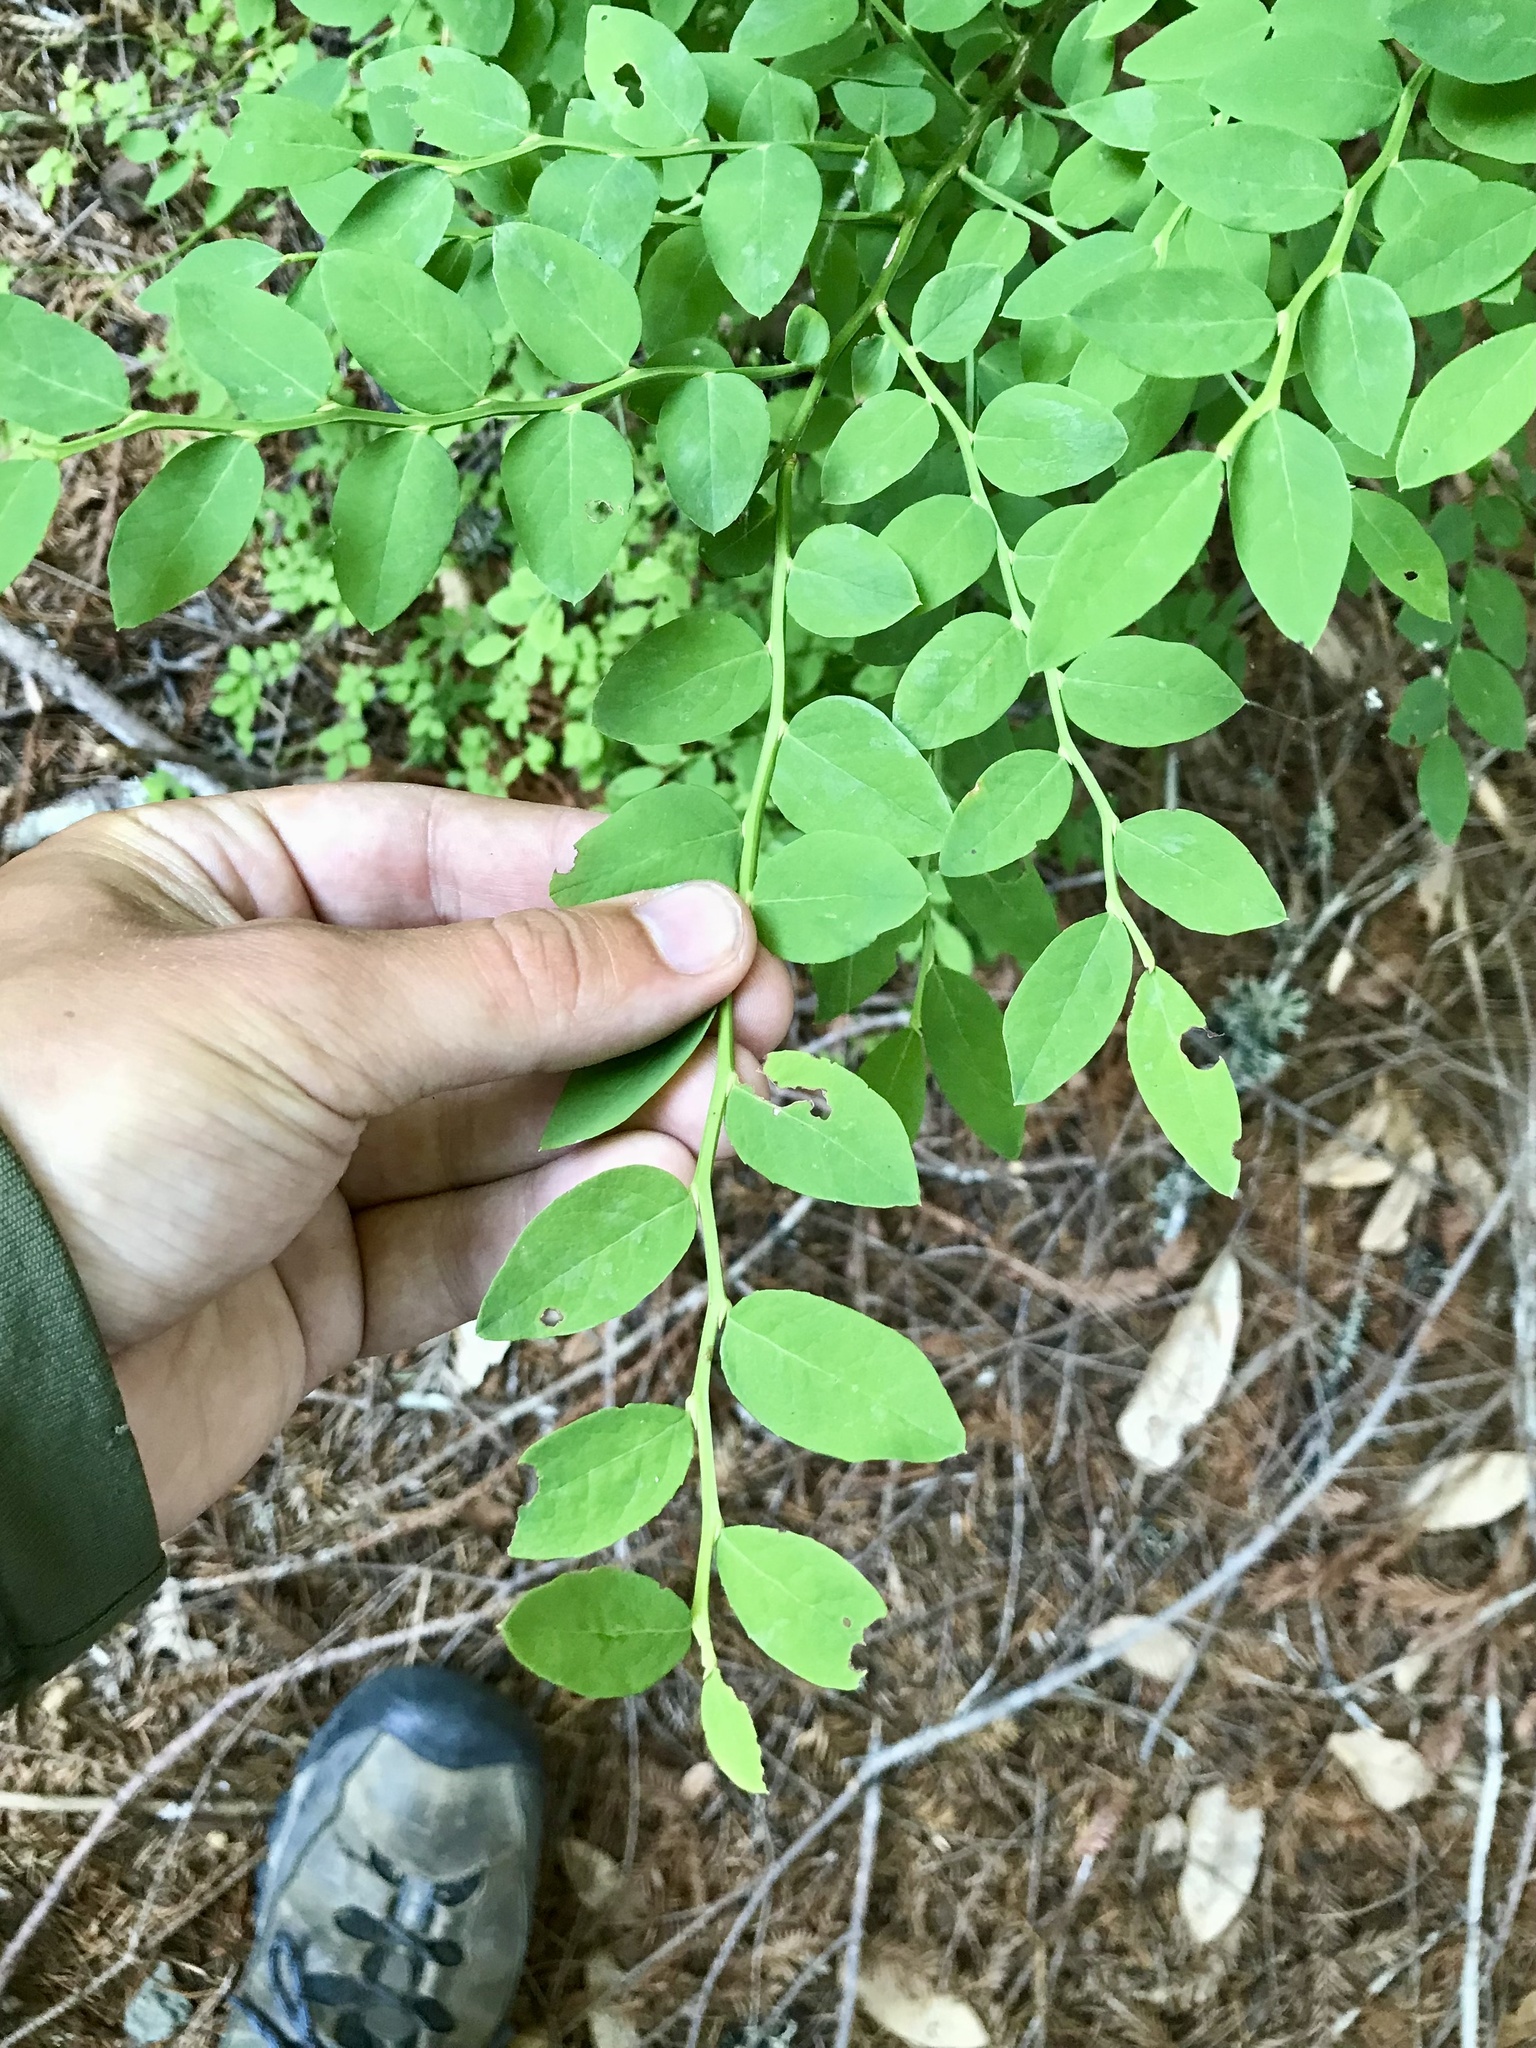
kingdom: Plantae
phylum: Tracheophyta
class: Magnoliopsida
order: Ericales
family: Ericaceae
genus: Vaccinium
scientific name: Vaccinium parvifolium
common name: Red-huckleberry
